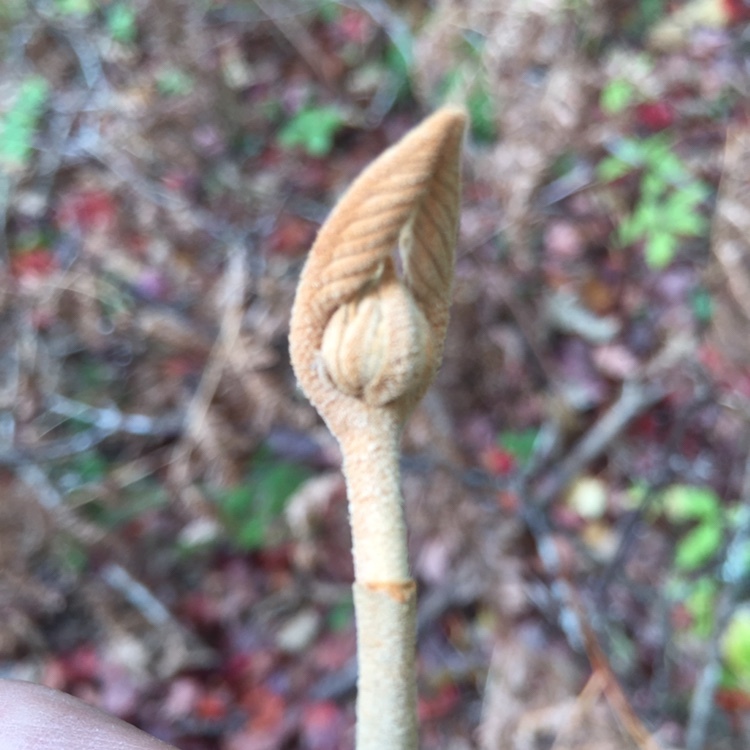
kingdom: Plantae
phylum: Tracheophyta
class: Magnoliopsida
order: Dipsacales
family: Viburnaceae
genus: Viburnum
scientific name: Viburnum lantanoides
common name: Hobblebush
